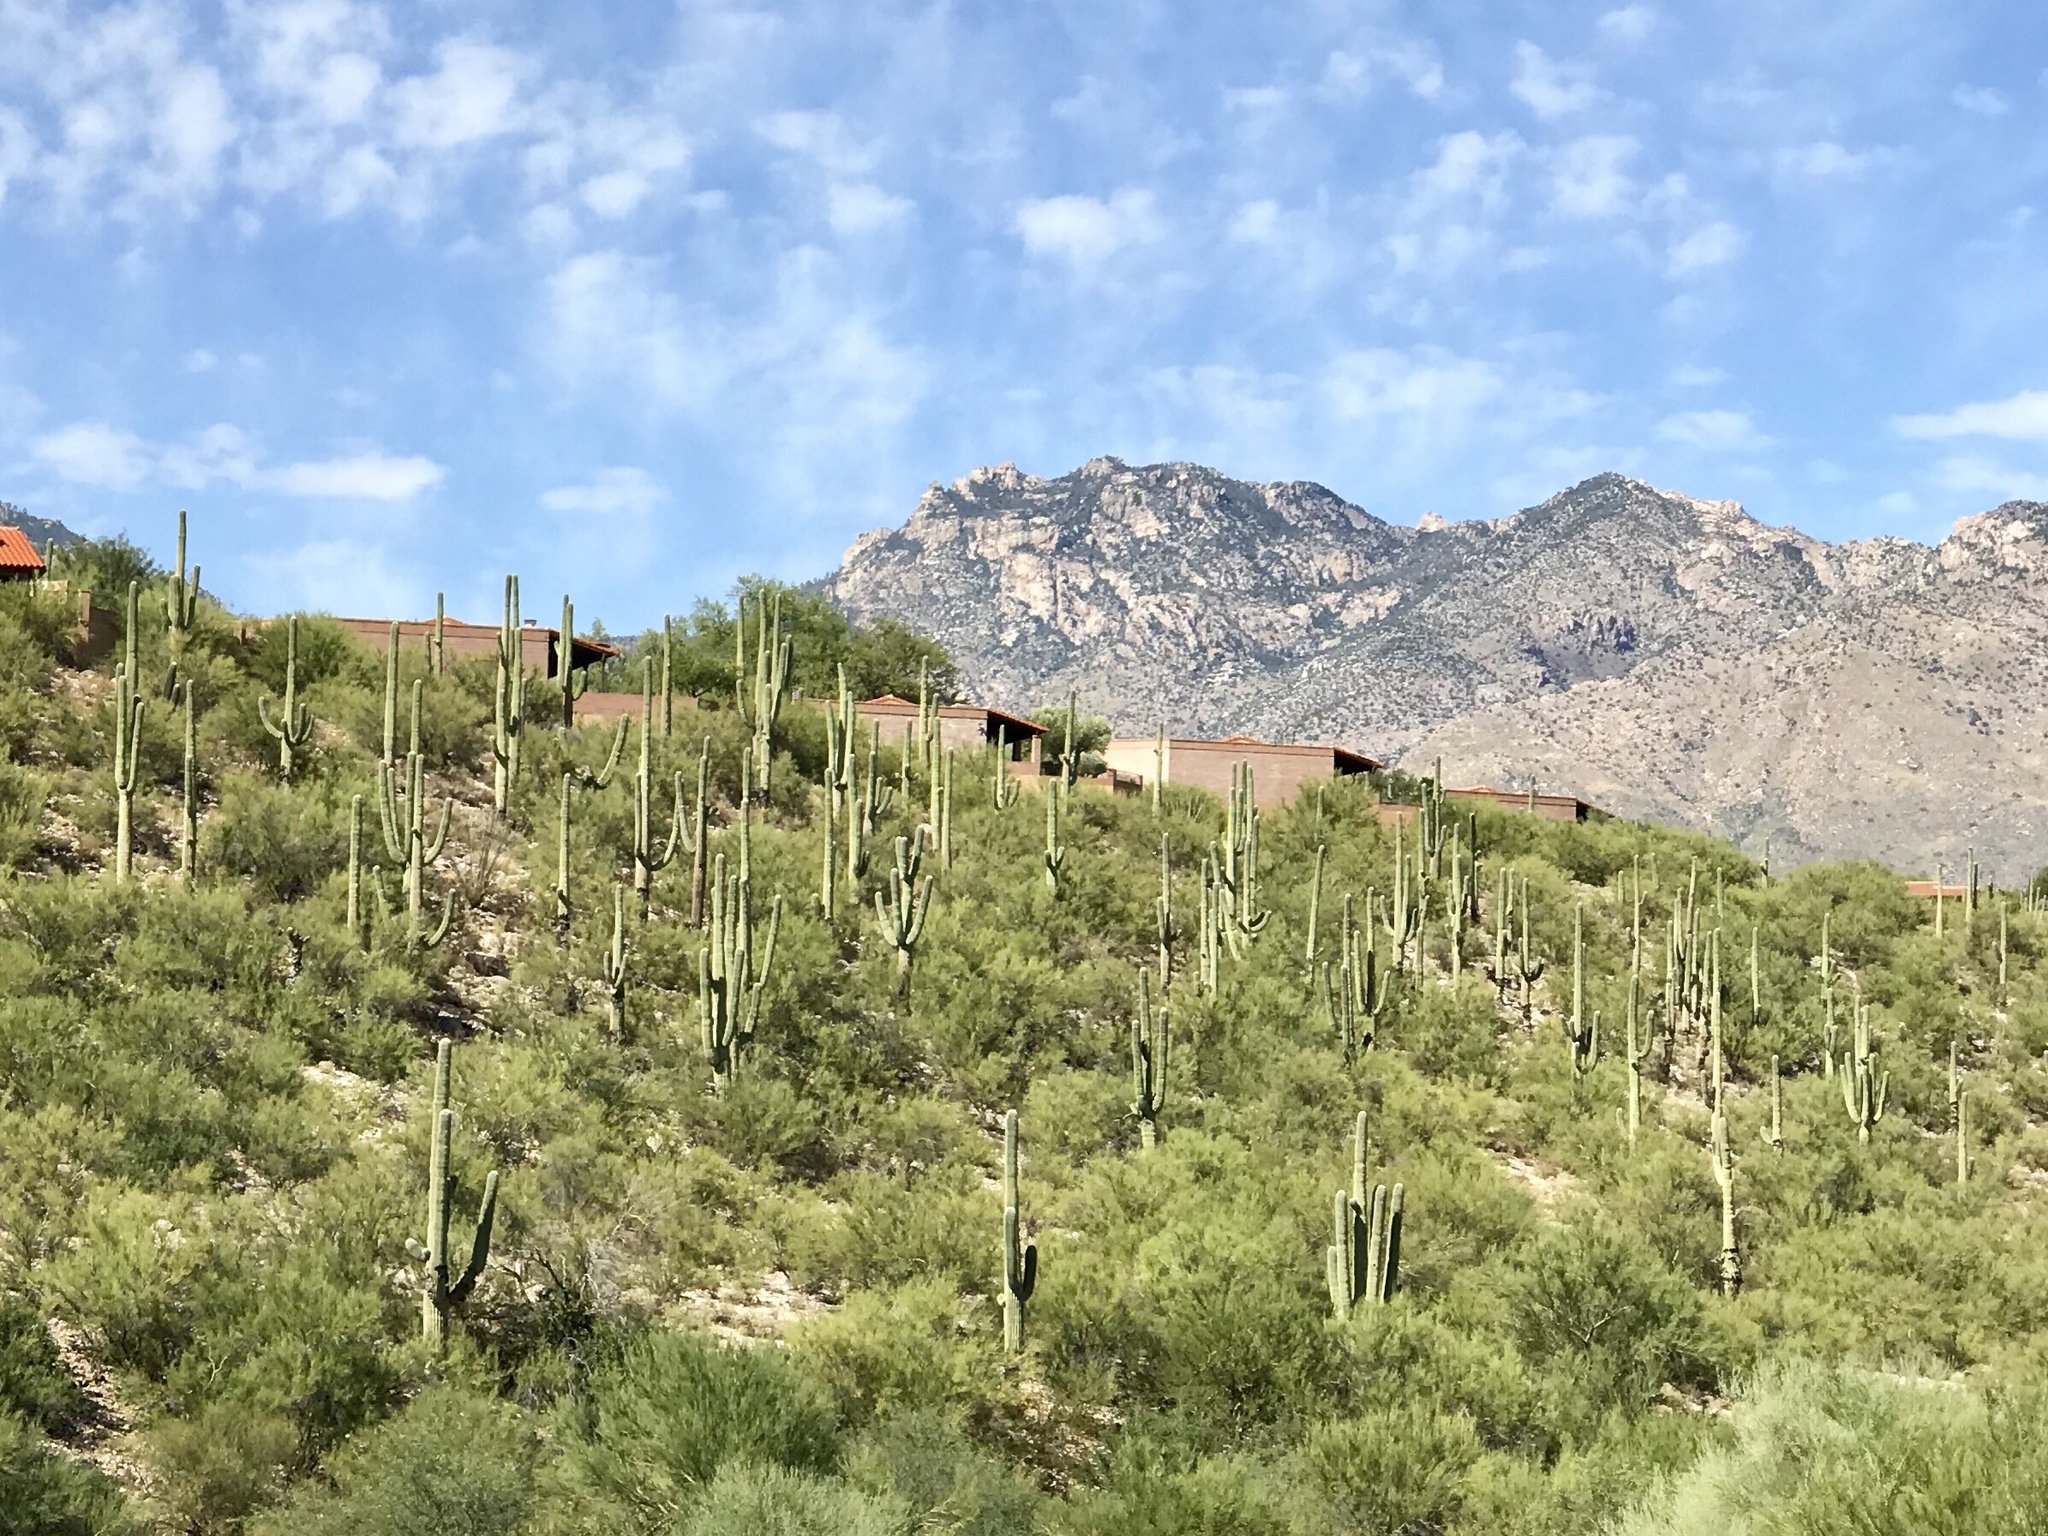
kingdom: Plantae
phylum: Tracheophyta
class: Magnoliopsida
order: Caryophyllales
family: Cactaceae
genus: Carnegiea
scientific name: Carnegiea gigantea
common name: Saguaro
